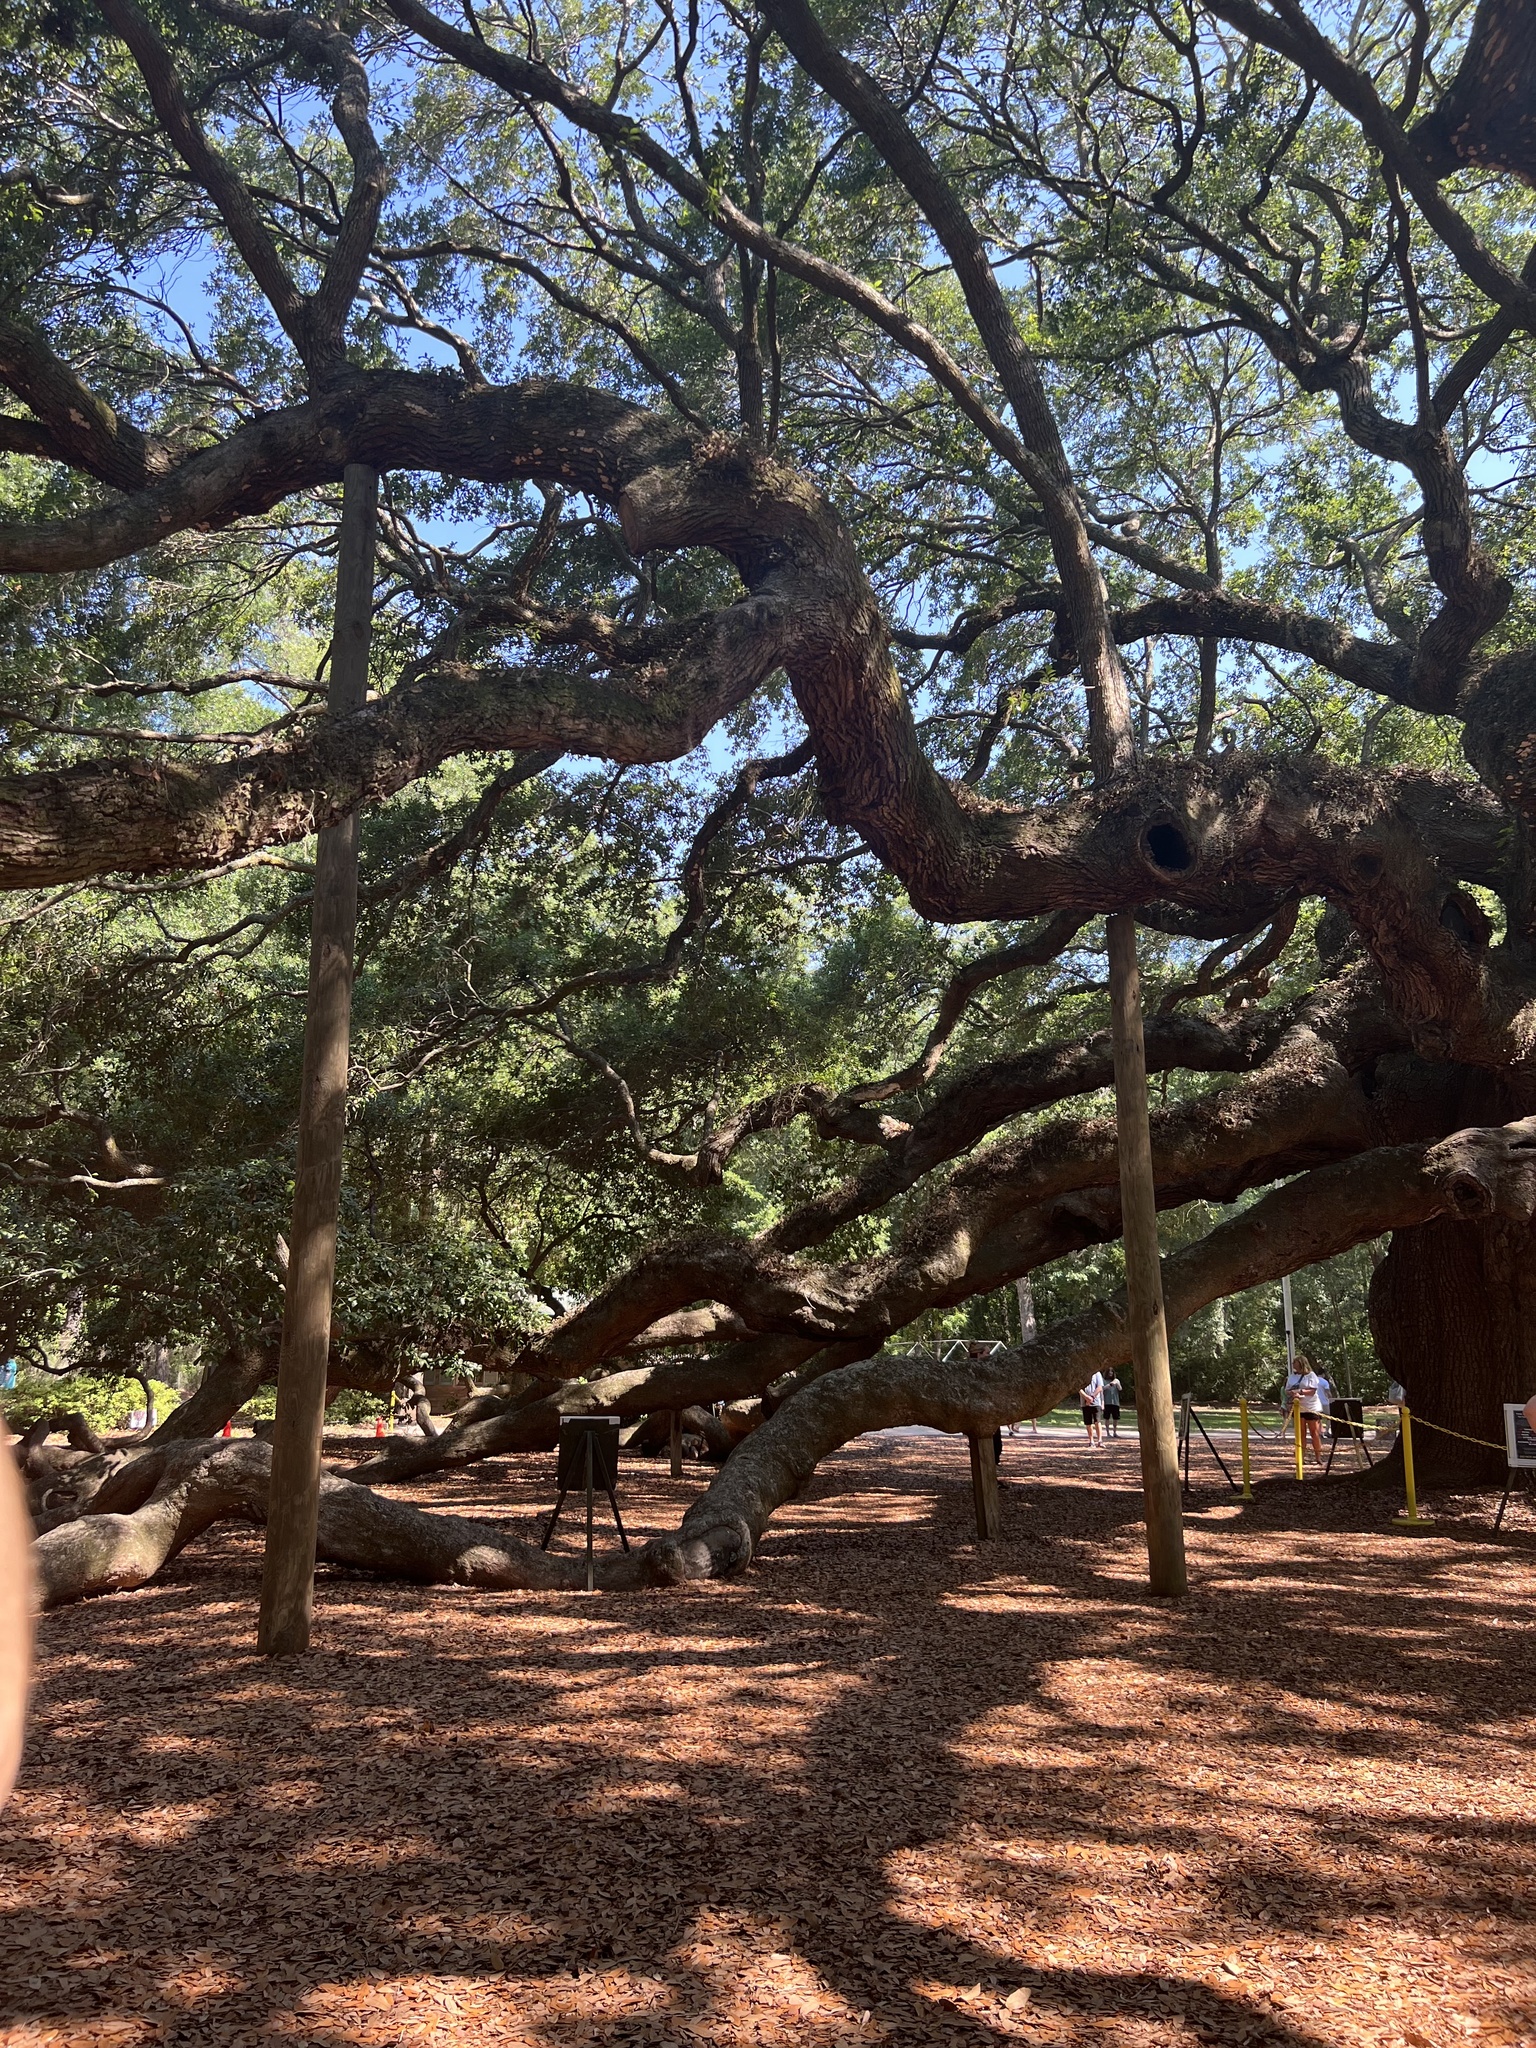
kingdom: Plantae
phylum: Tracheophyta
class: Magnoliopsida
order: Fagales
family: Fagaceae
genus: Quercus
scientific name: Quercus virginiana
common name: Southern live oak
